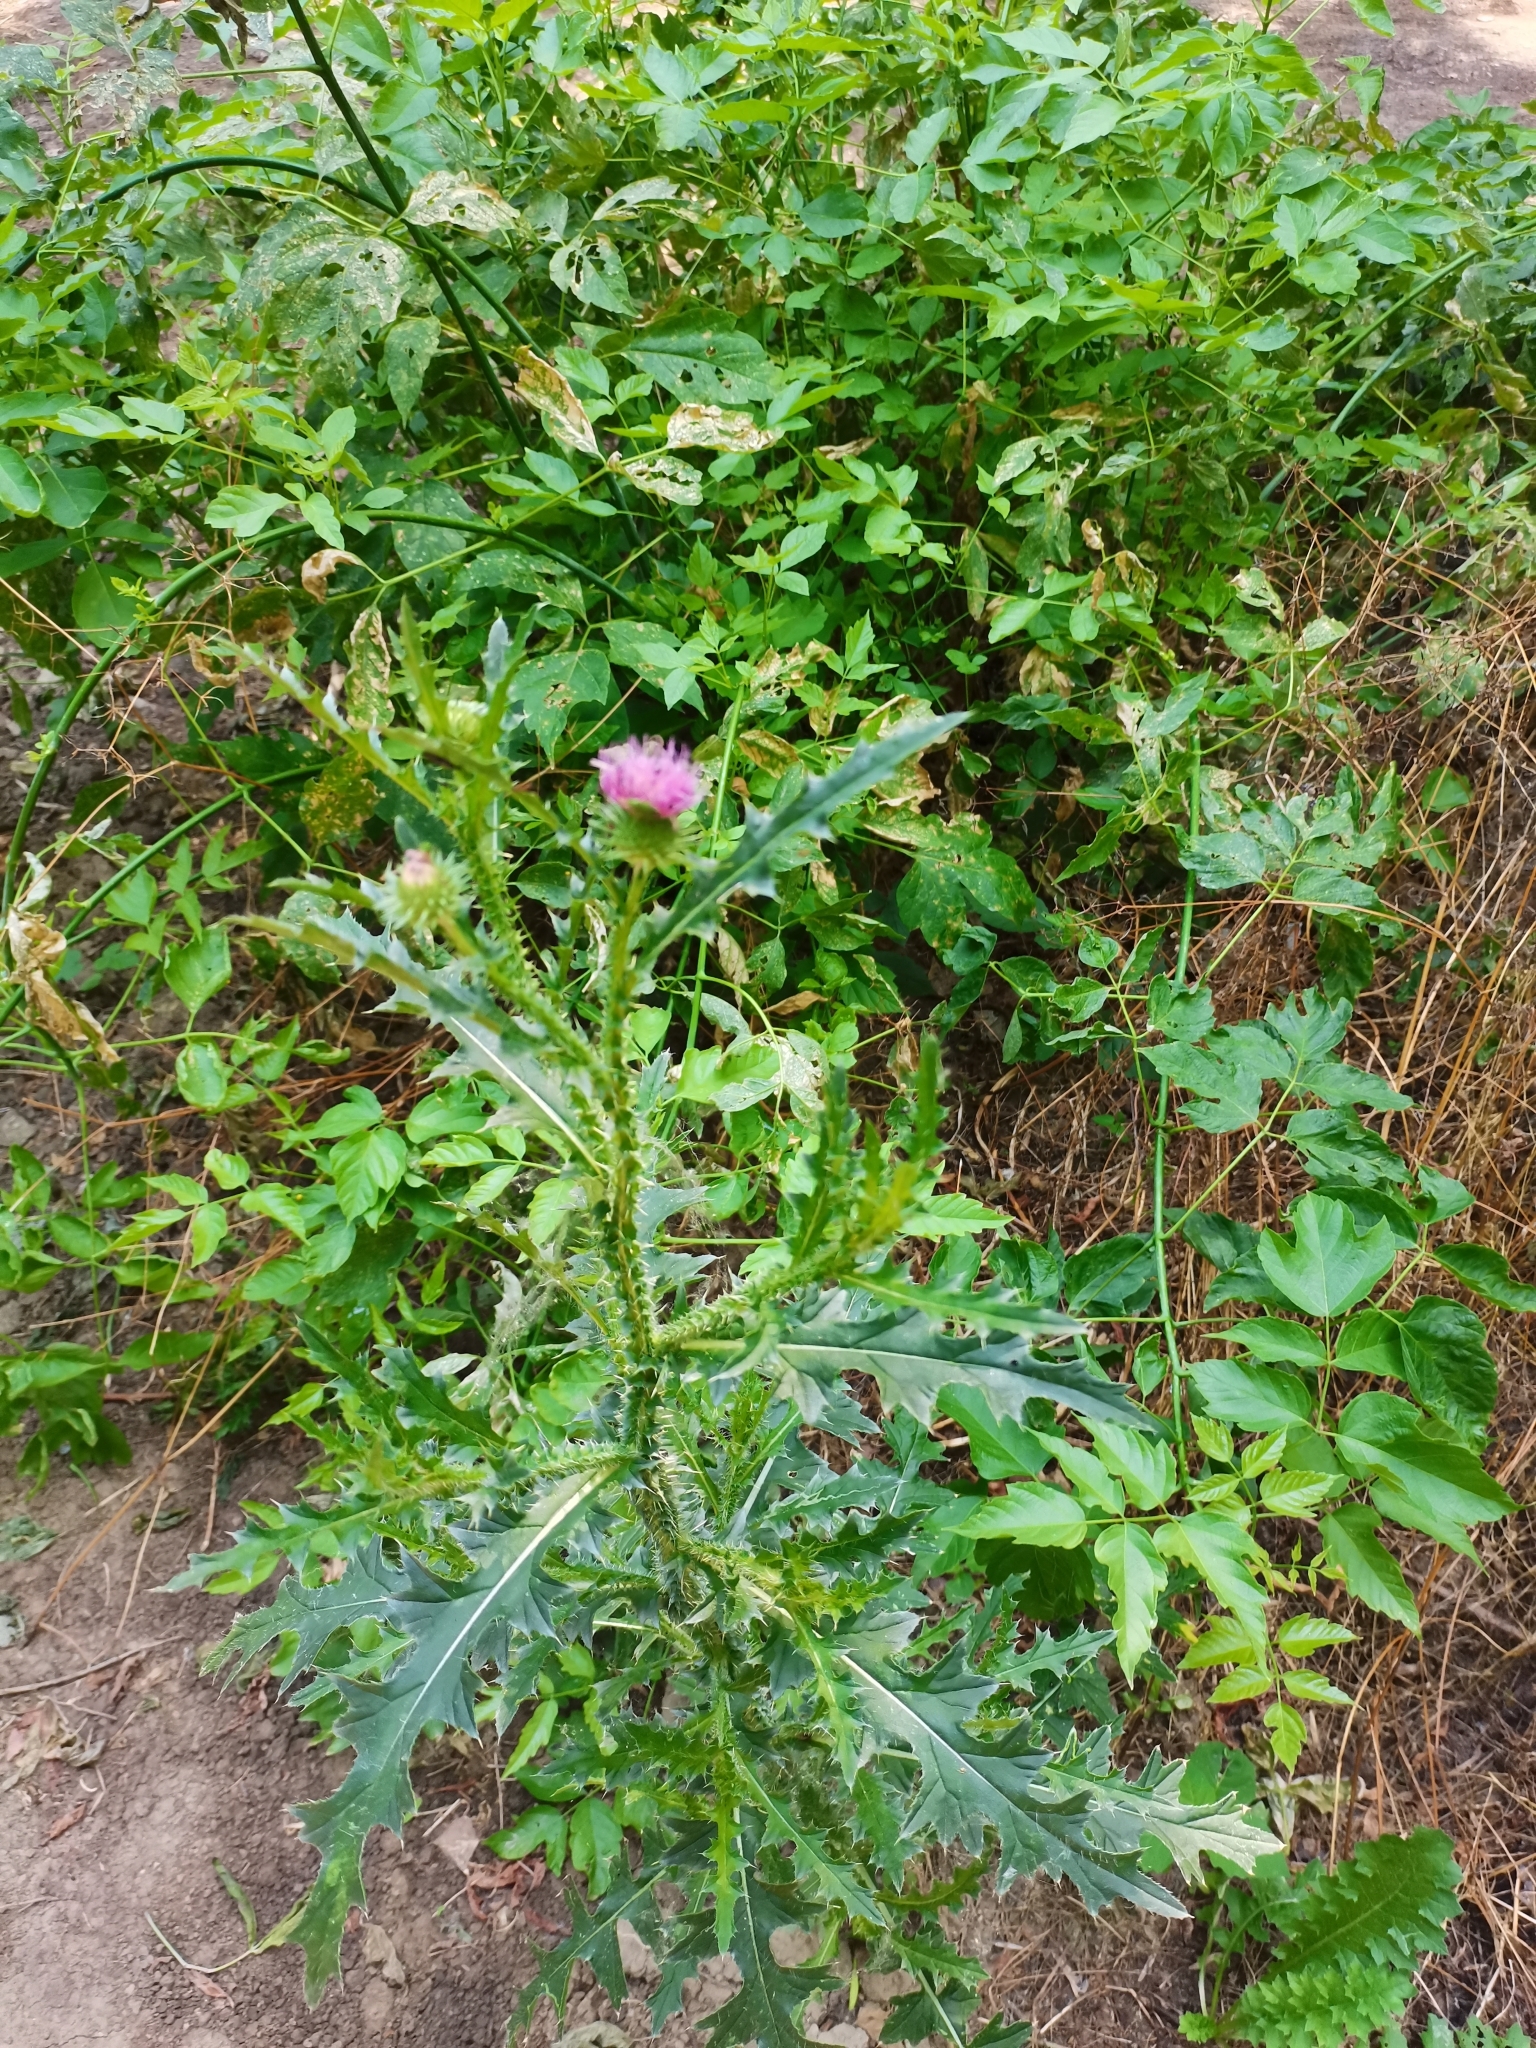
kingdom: Plantae
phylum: Tracheophyta
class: Magnoliopsida
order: Asterales
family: Asteraceae
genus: Carduus
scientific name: Carduus acanthoides
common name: Plumeless thistle
